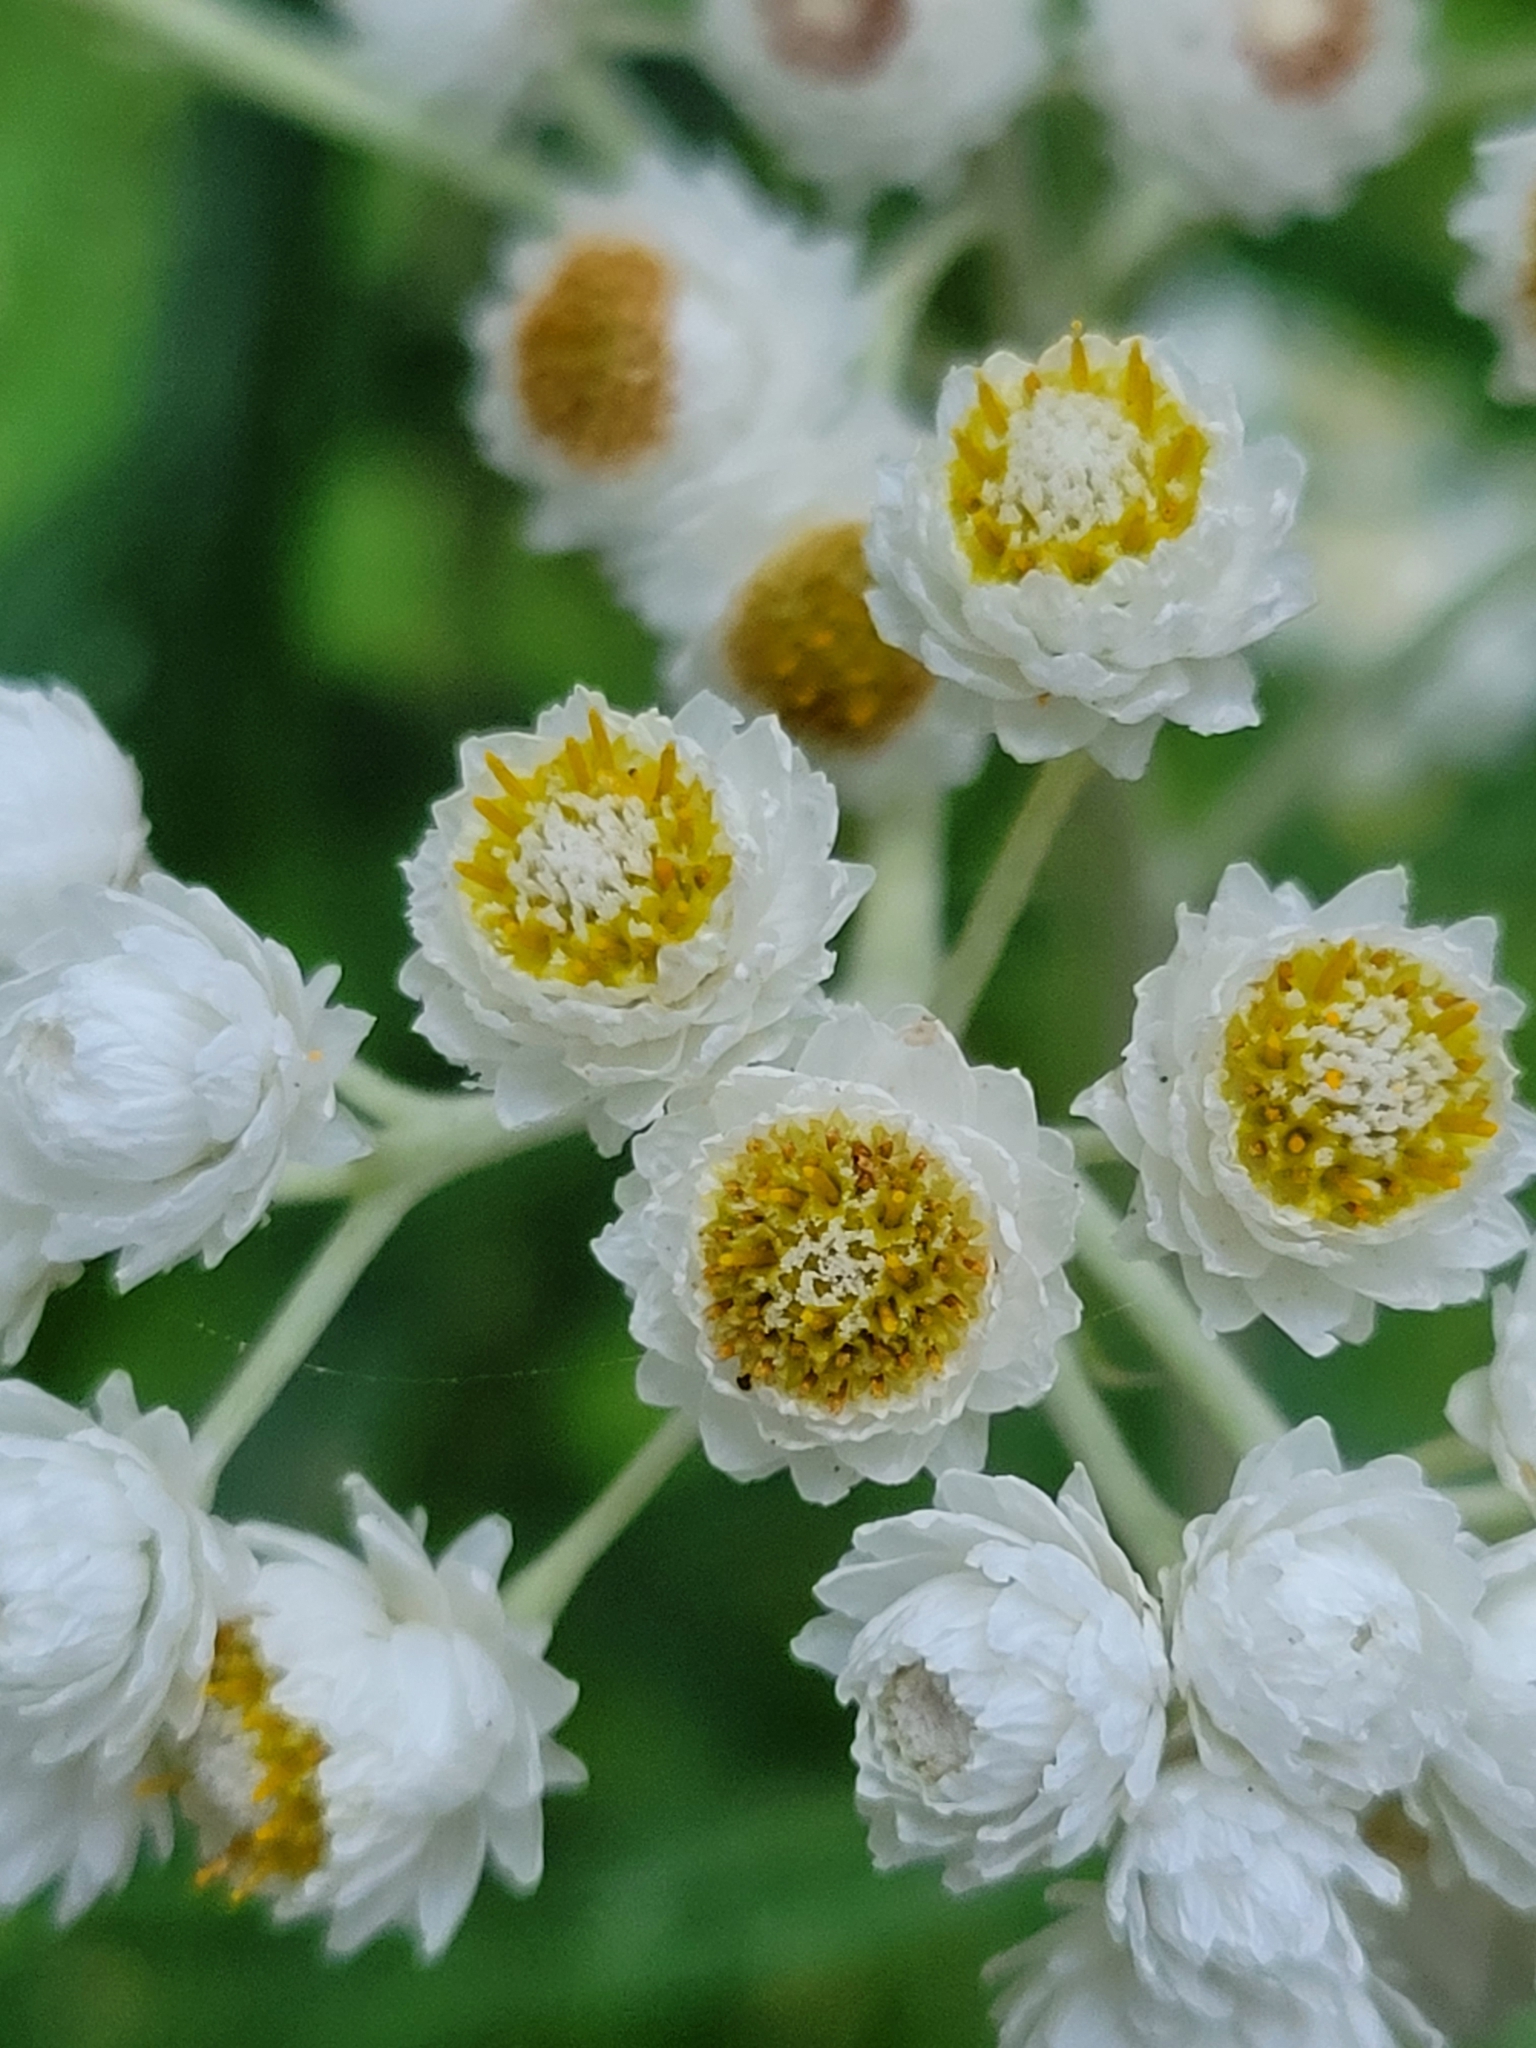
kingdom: Plantae
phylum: Tracheophyta
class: Magnoliopsida
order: Asterales
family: Asteraceae
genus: Anaphalis
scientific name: Anaphalis margaritacea
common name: Pearly everlasting
